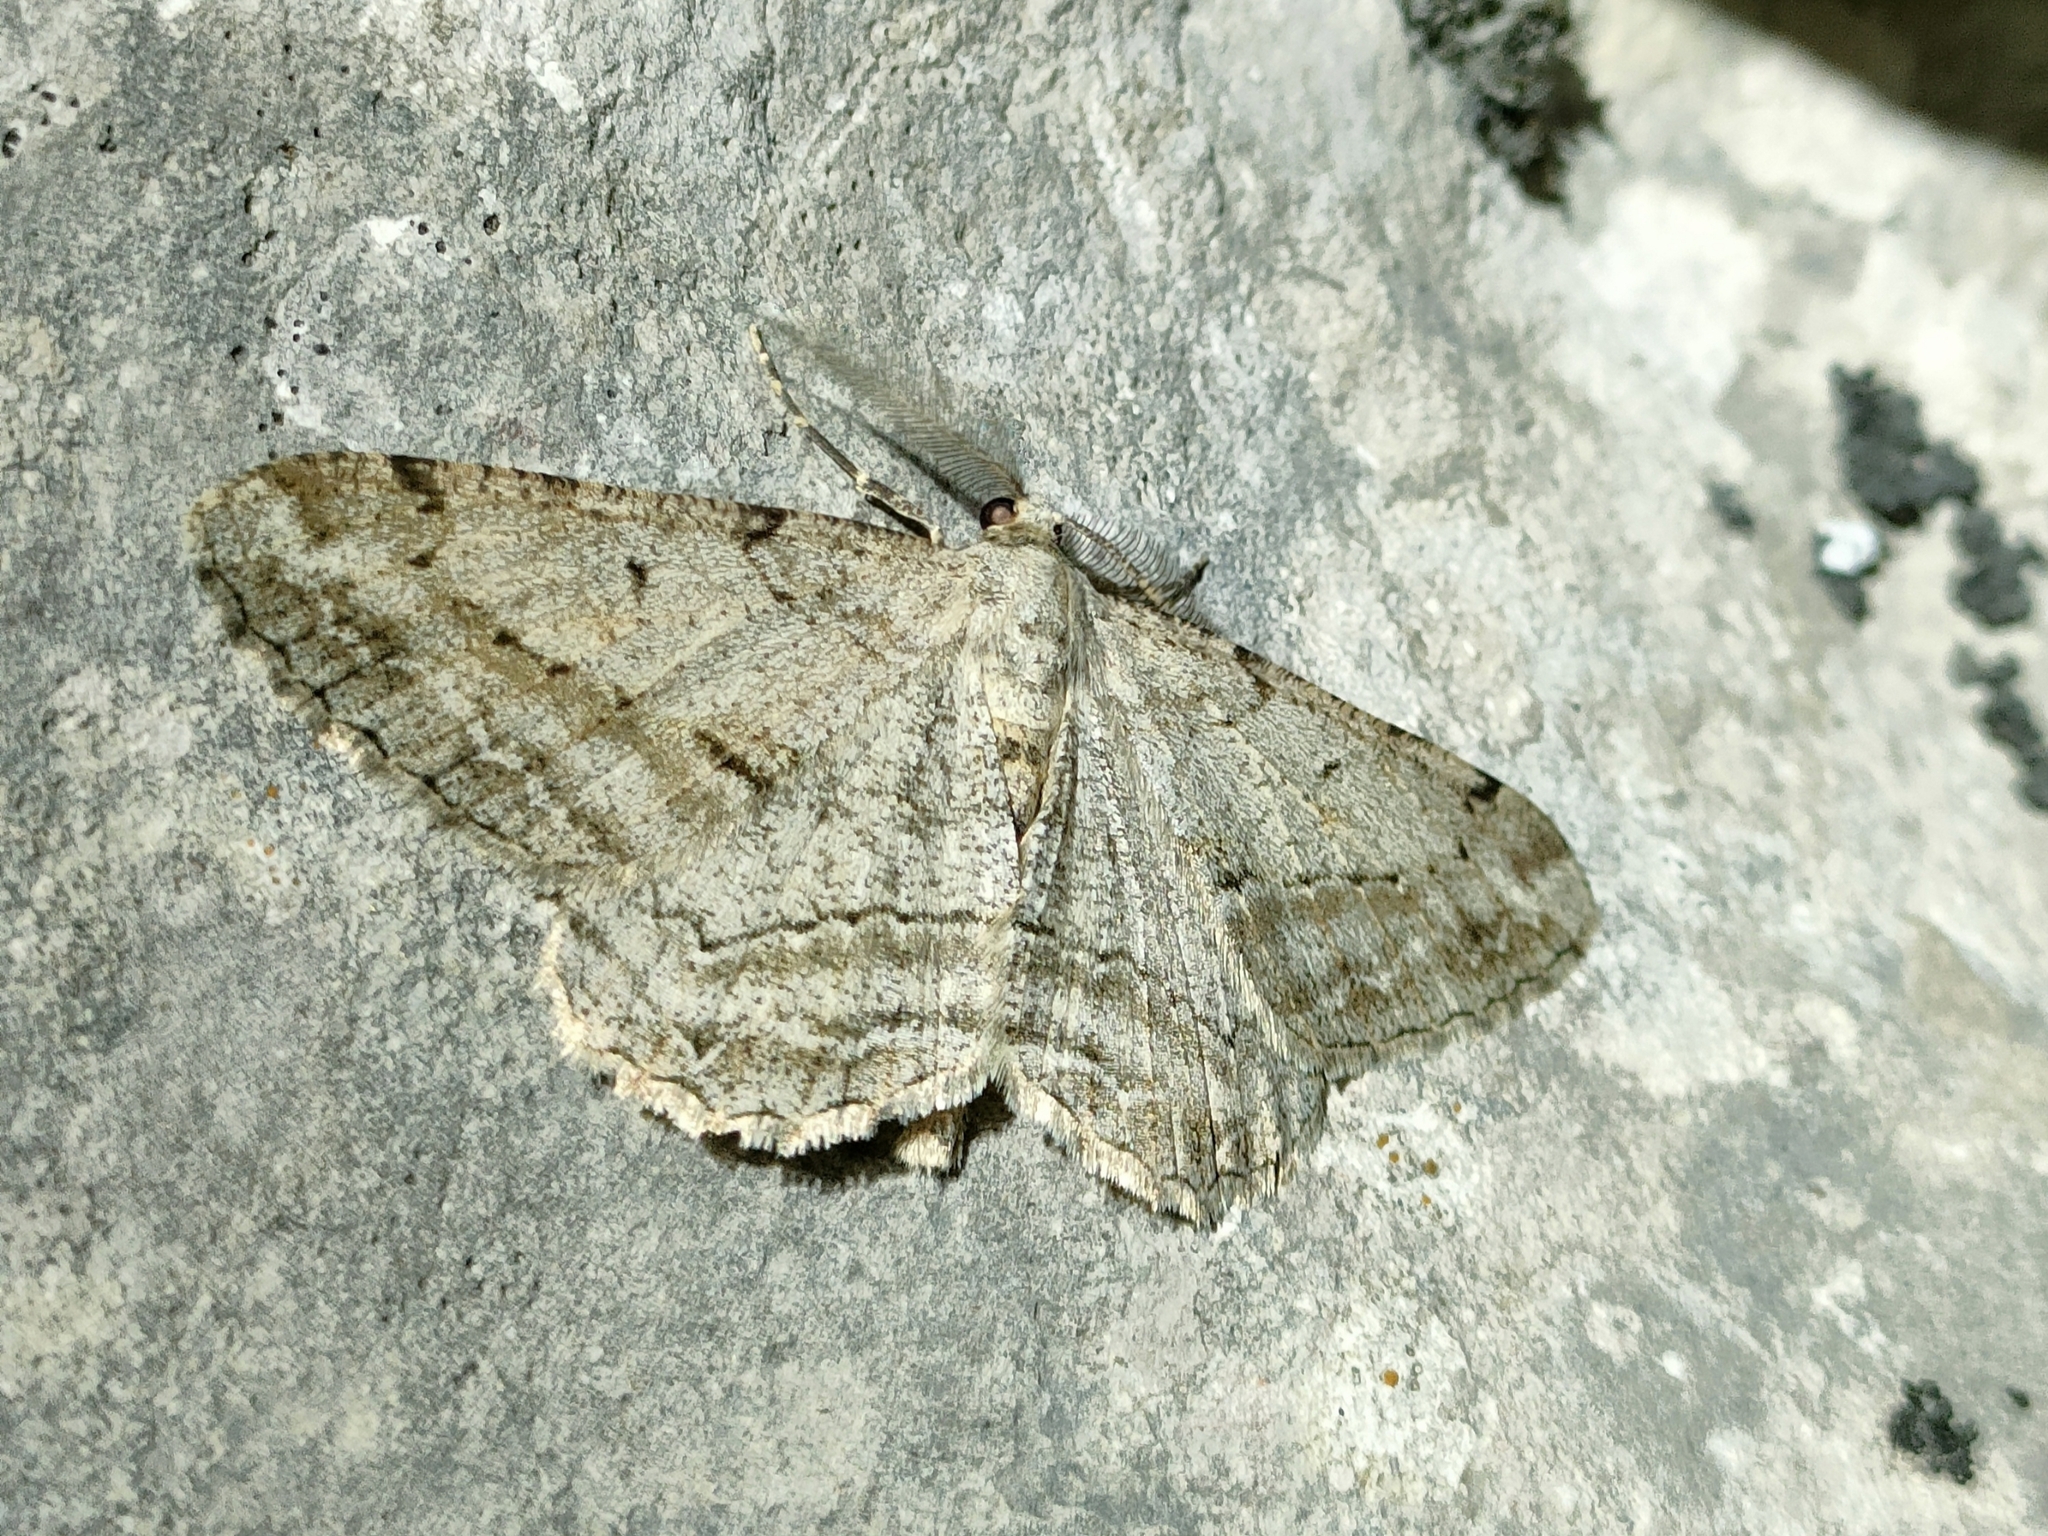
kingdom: Animalia
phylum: Arthropoda
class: Insecta
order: Lepidoptera
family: Geometridae
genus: Peribatodes
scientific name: Peribatodes perversaria
